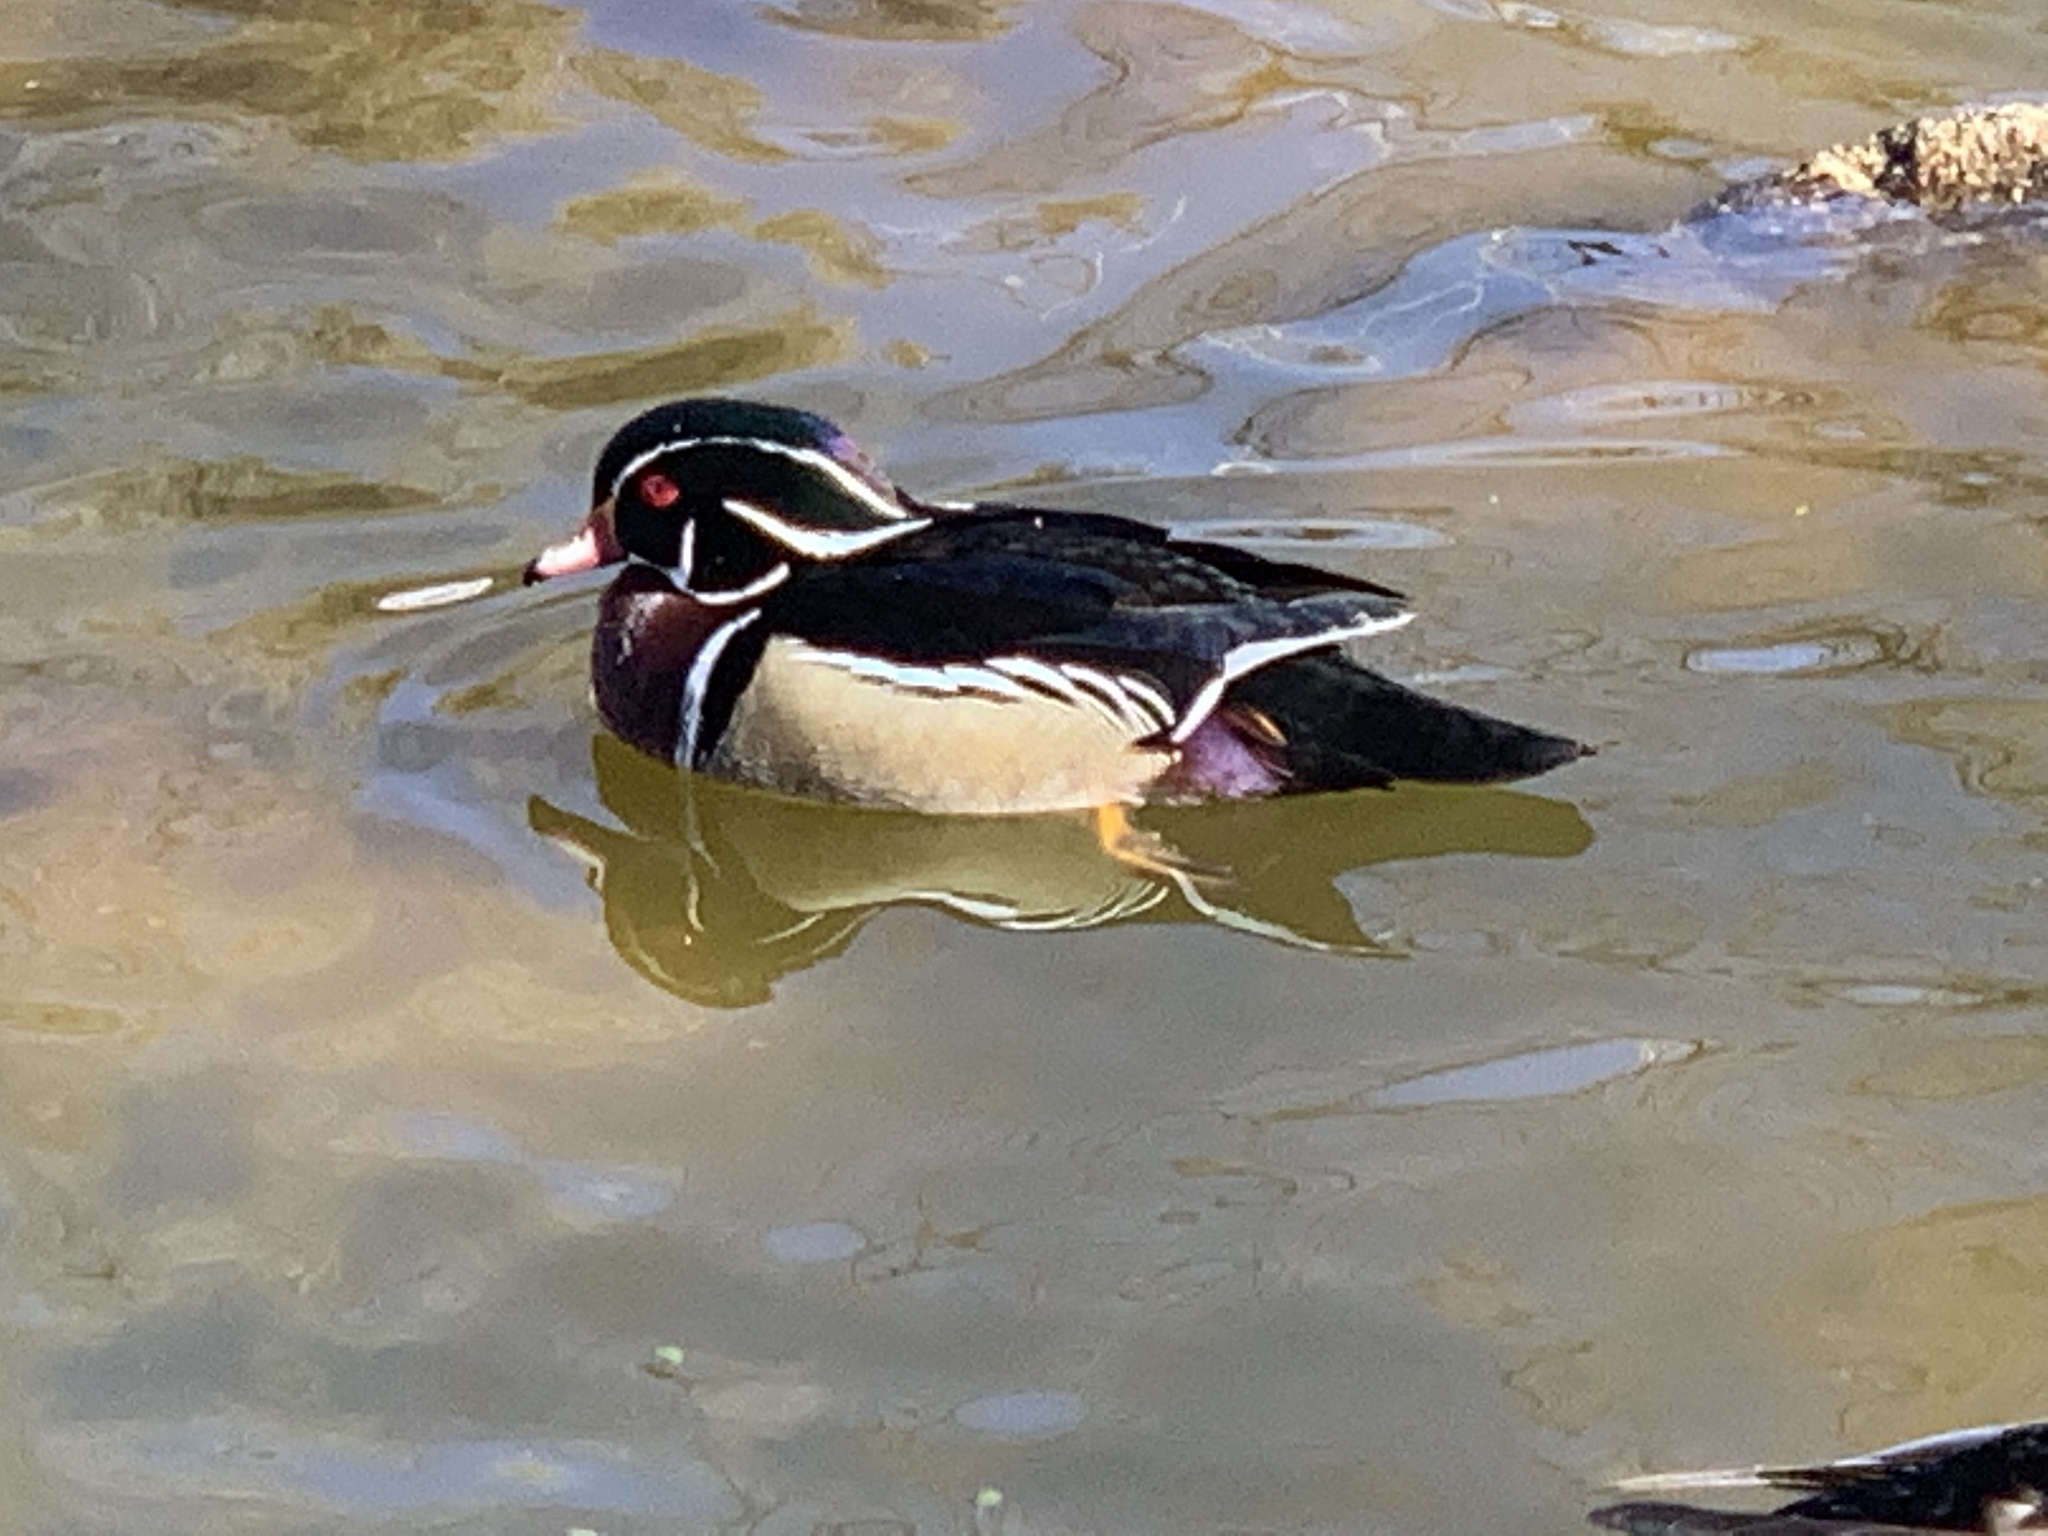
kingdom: Animalia
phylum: Chordata
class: Aves
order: Anseriformes
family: Anatidae
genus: Aix
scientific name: Aix sponsa
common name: Wood duck
